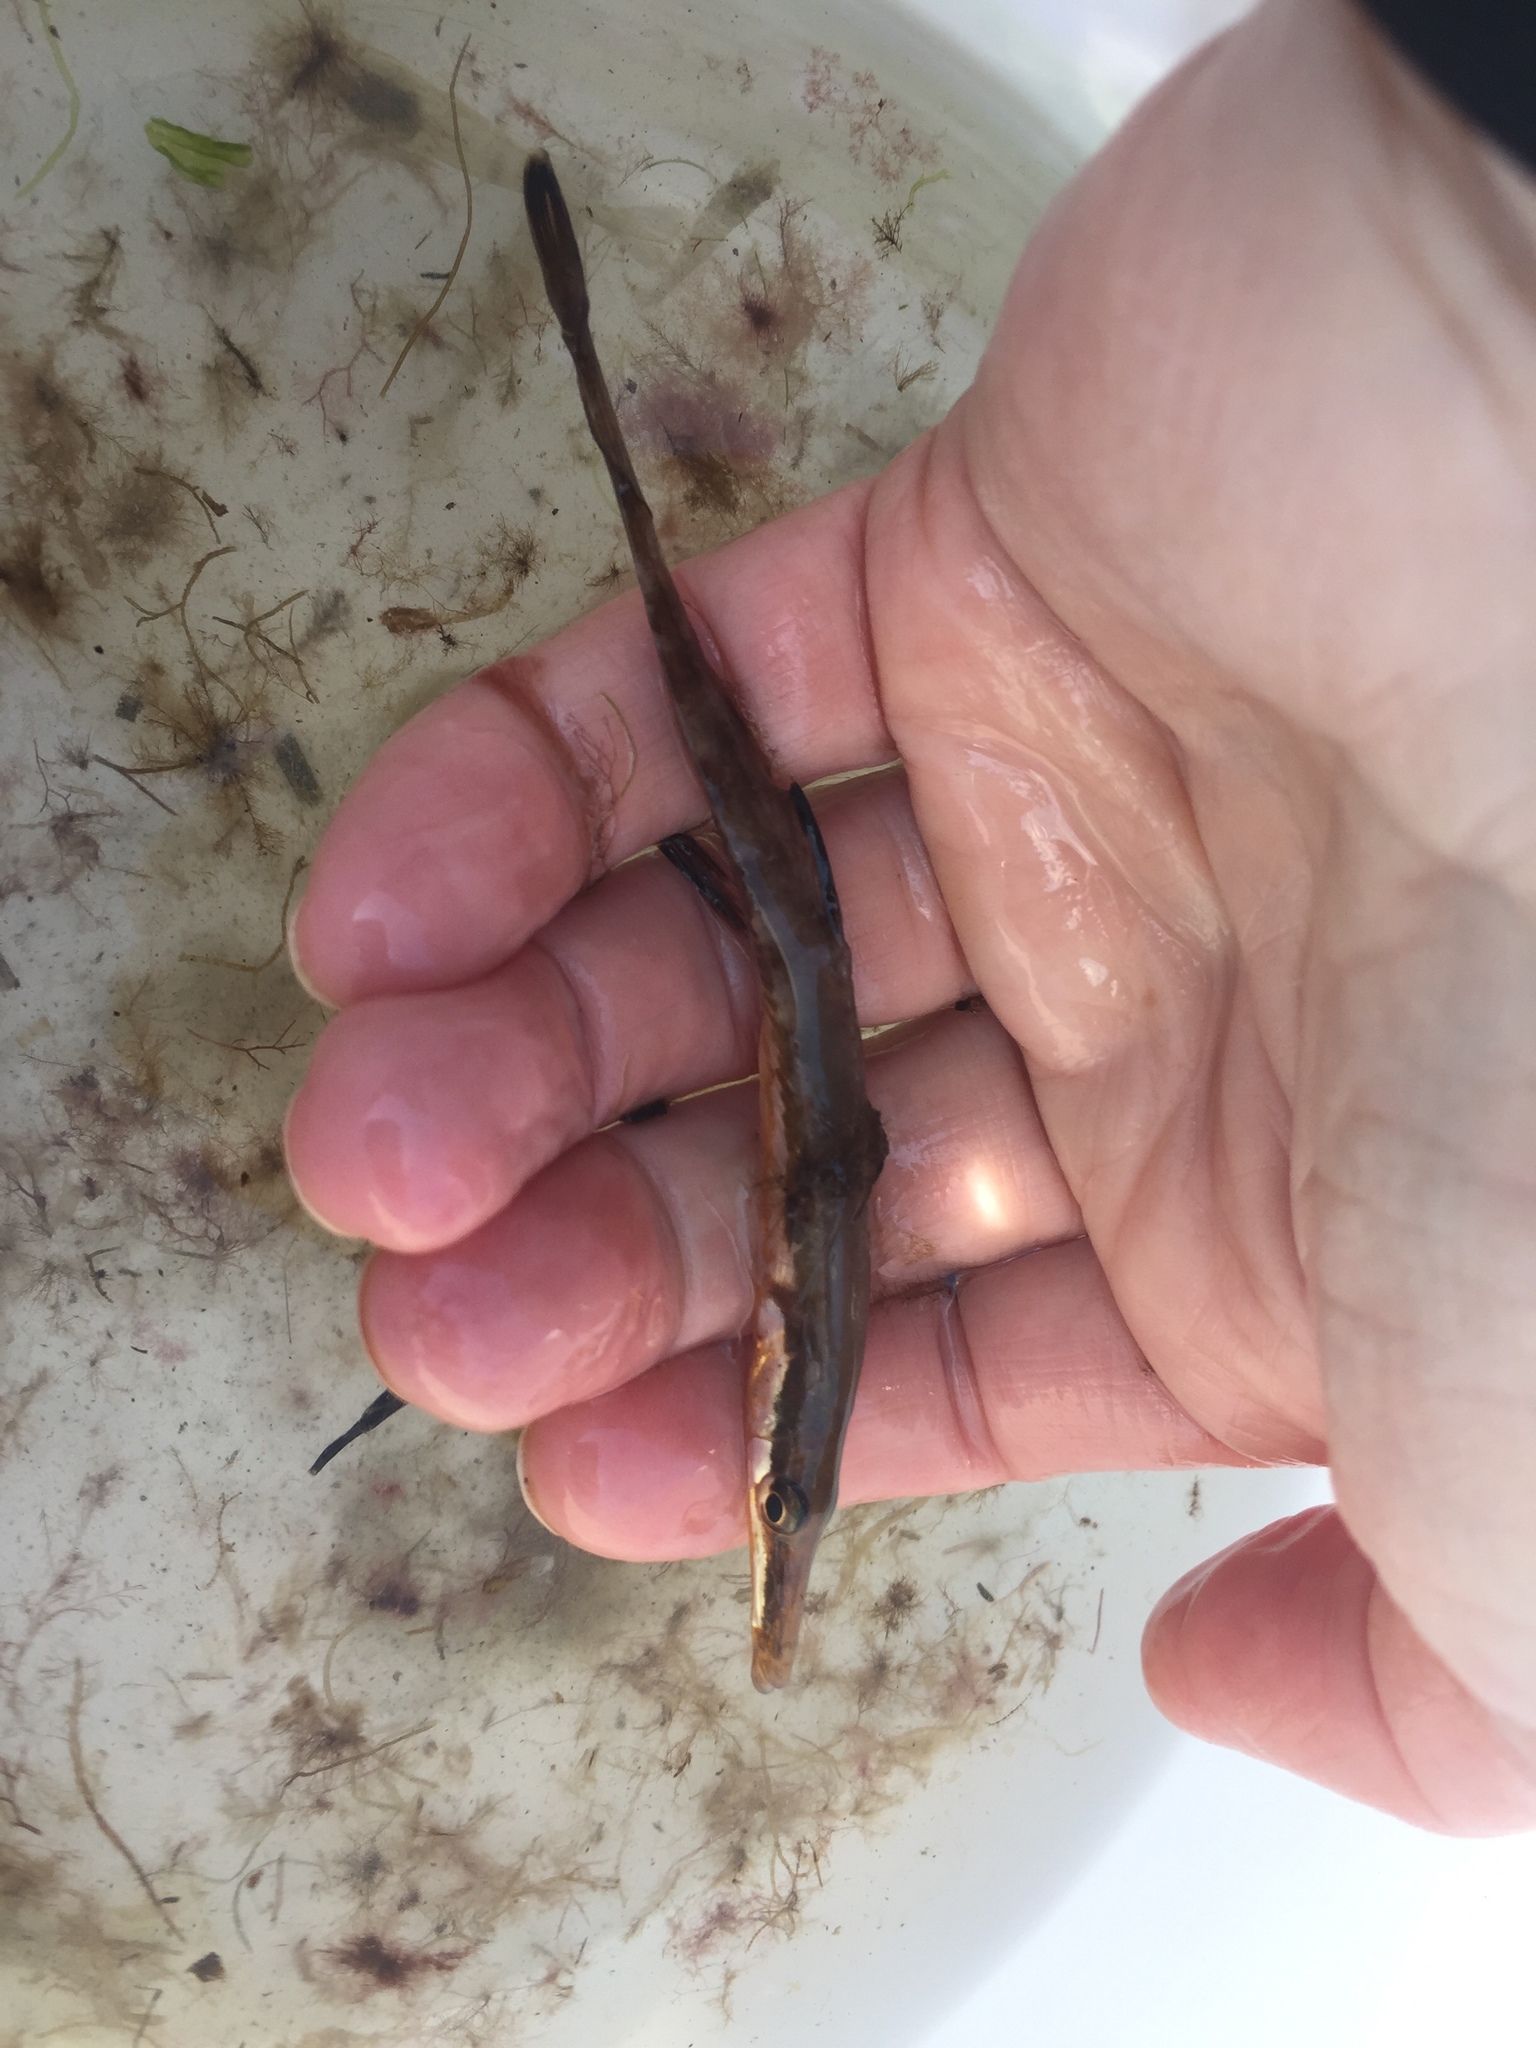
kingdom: Animalia
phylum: Chordata
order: Gasterosteiformes
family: Gasterosteidae
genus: Spinachia
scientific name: Spinachia spinachia
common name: Fifteen-spined stickleback
